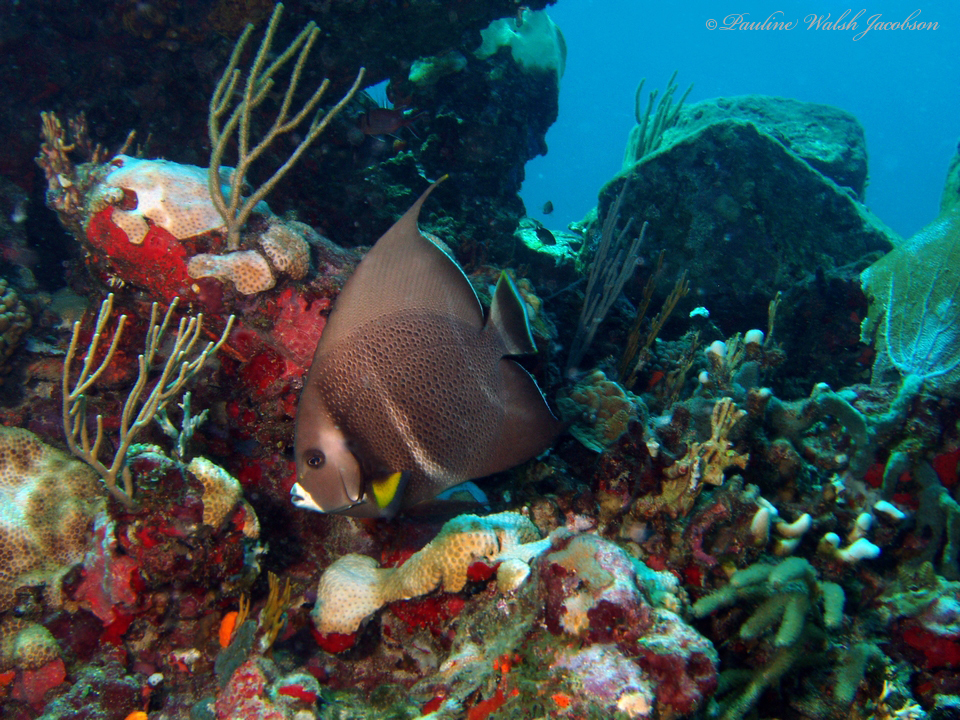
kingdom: Animalia
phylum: Chordata
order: Perciformes
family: Pomacanthidae
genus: Pomacanthus
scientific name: Pomacanthus arcuatus
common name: Gray angelfish
